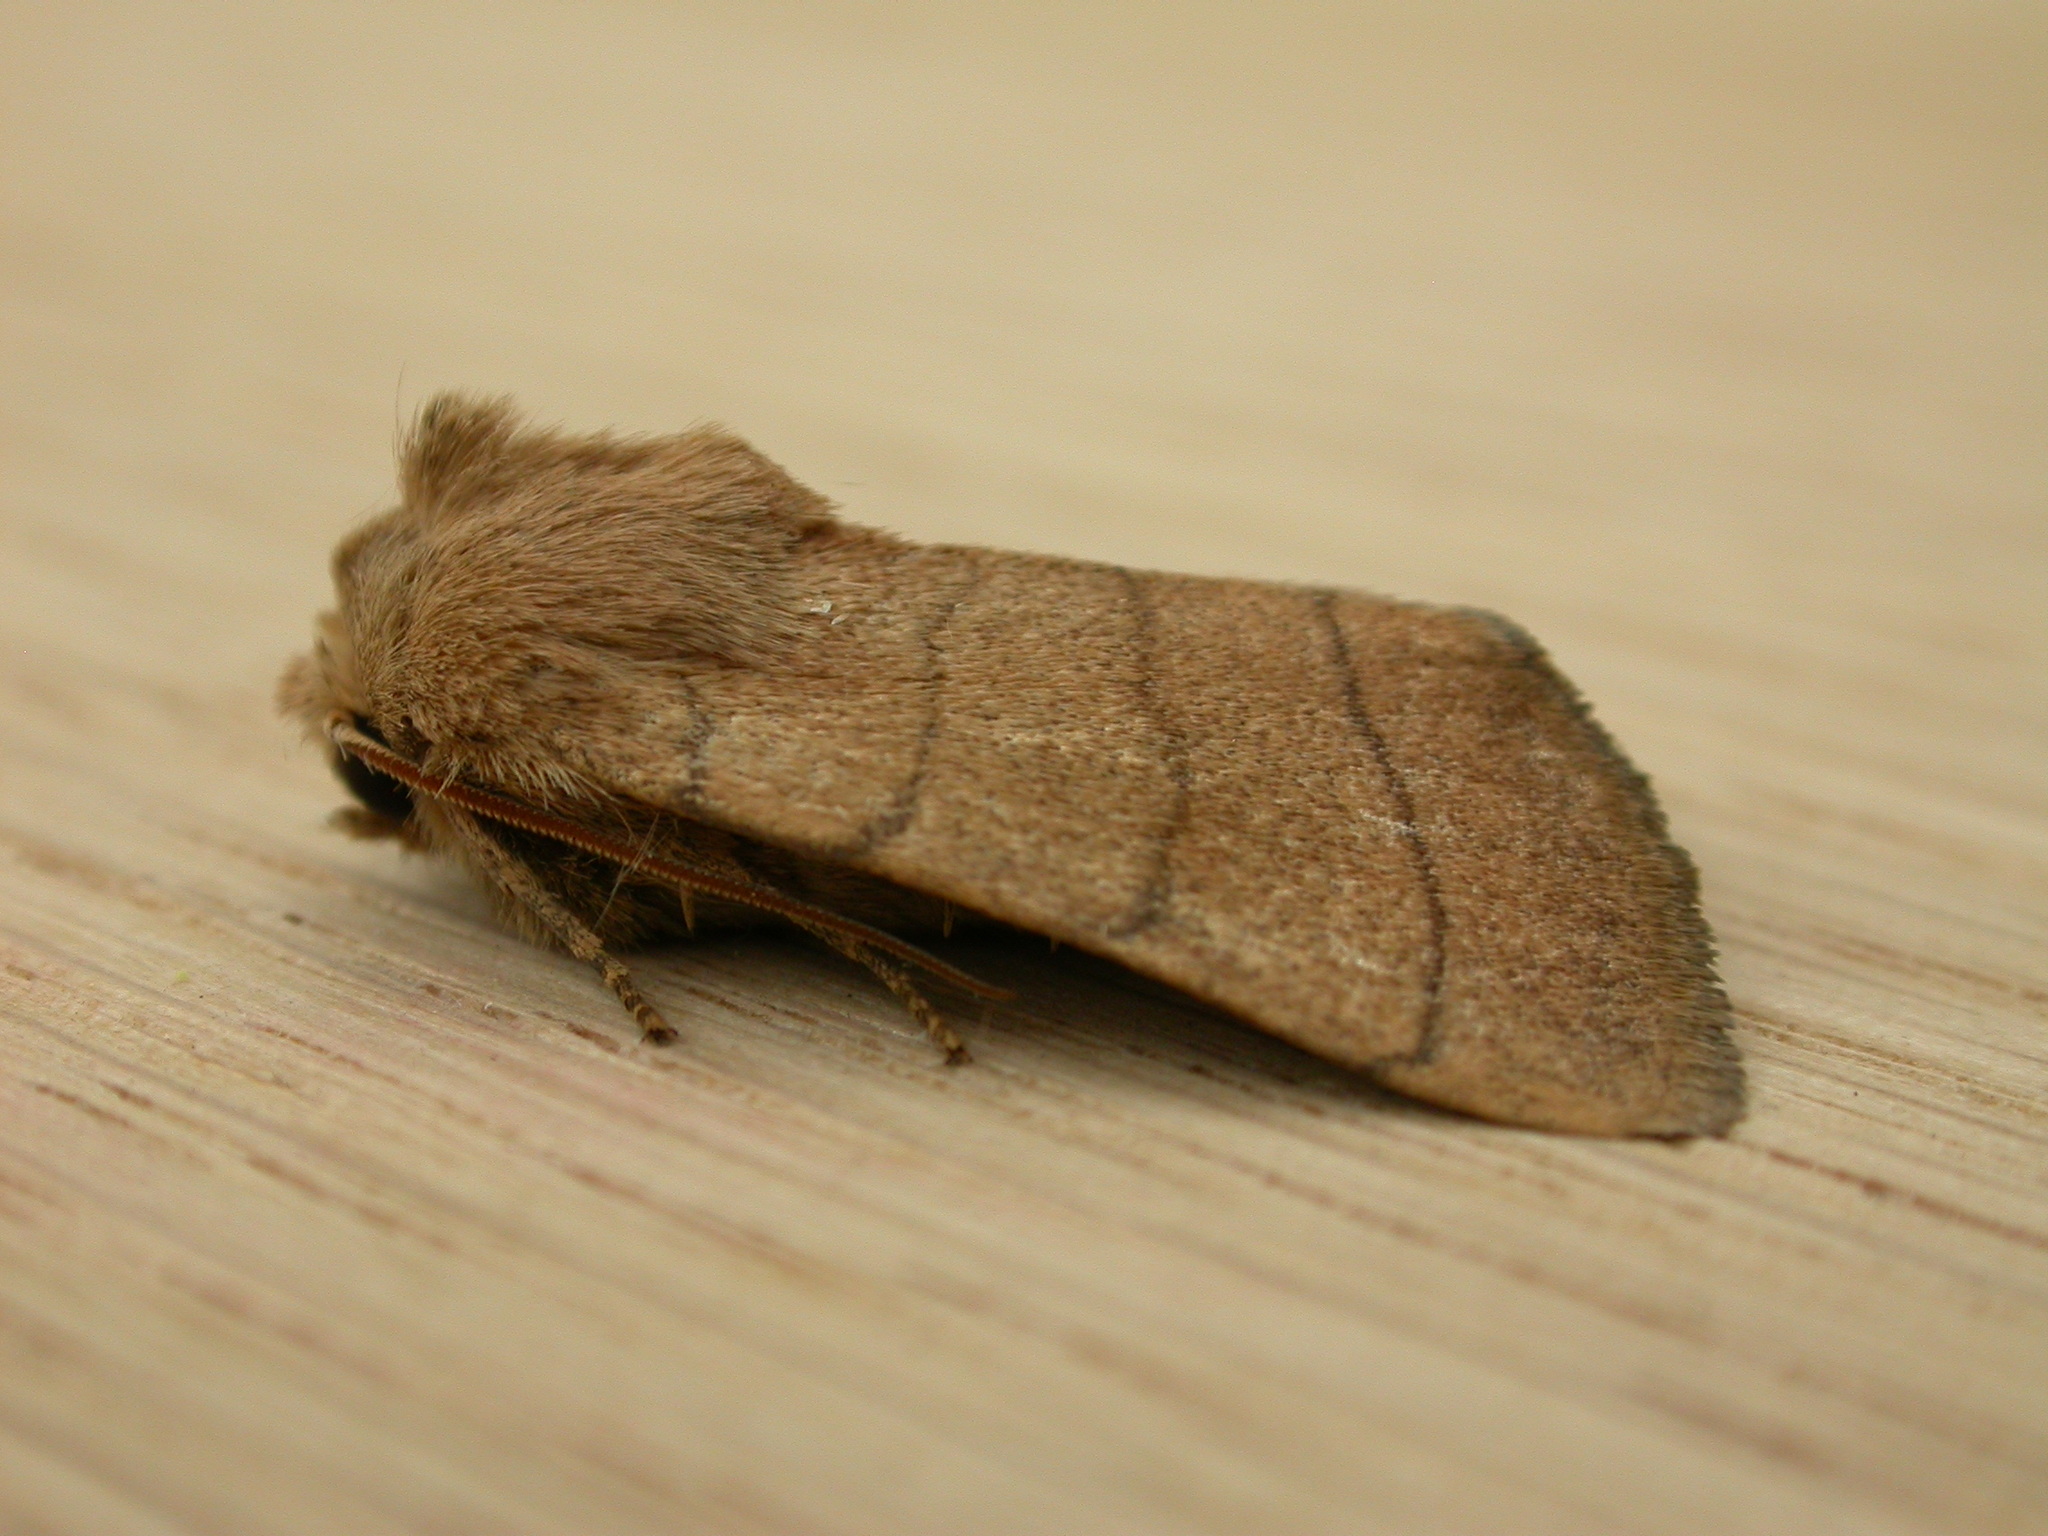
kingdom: Animalia
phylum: Arthropoda
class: Insecta
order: Lepidoptera
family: Noctuidae
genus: Charanyca
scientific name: Charanyca trigrammica
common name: Treble lines
